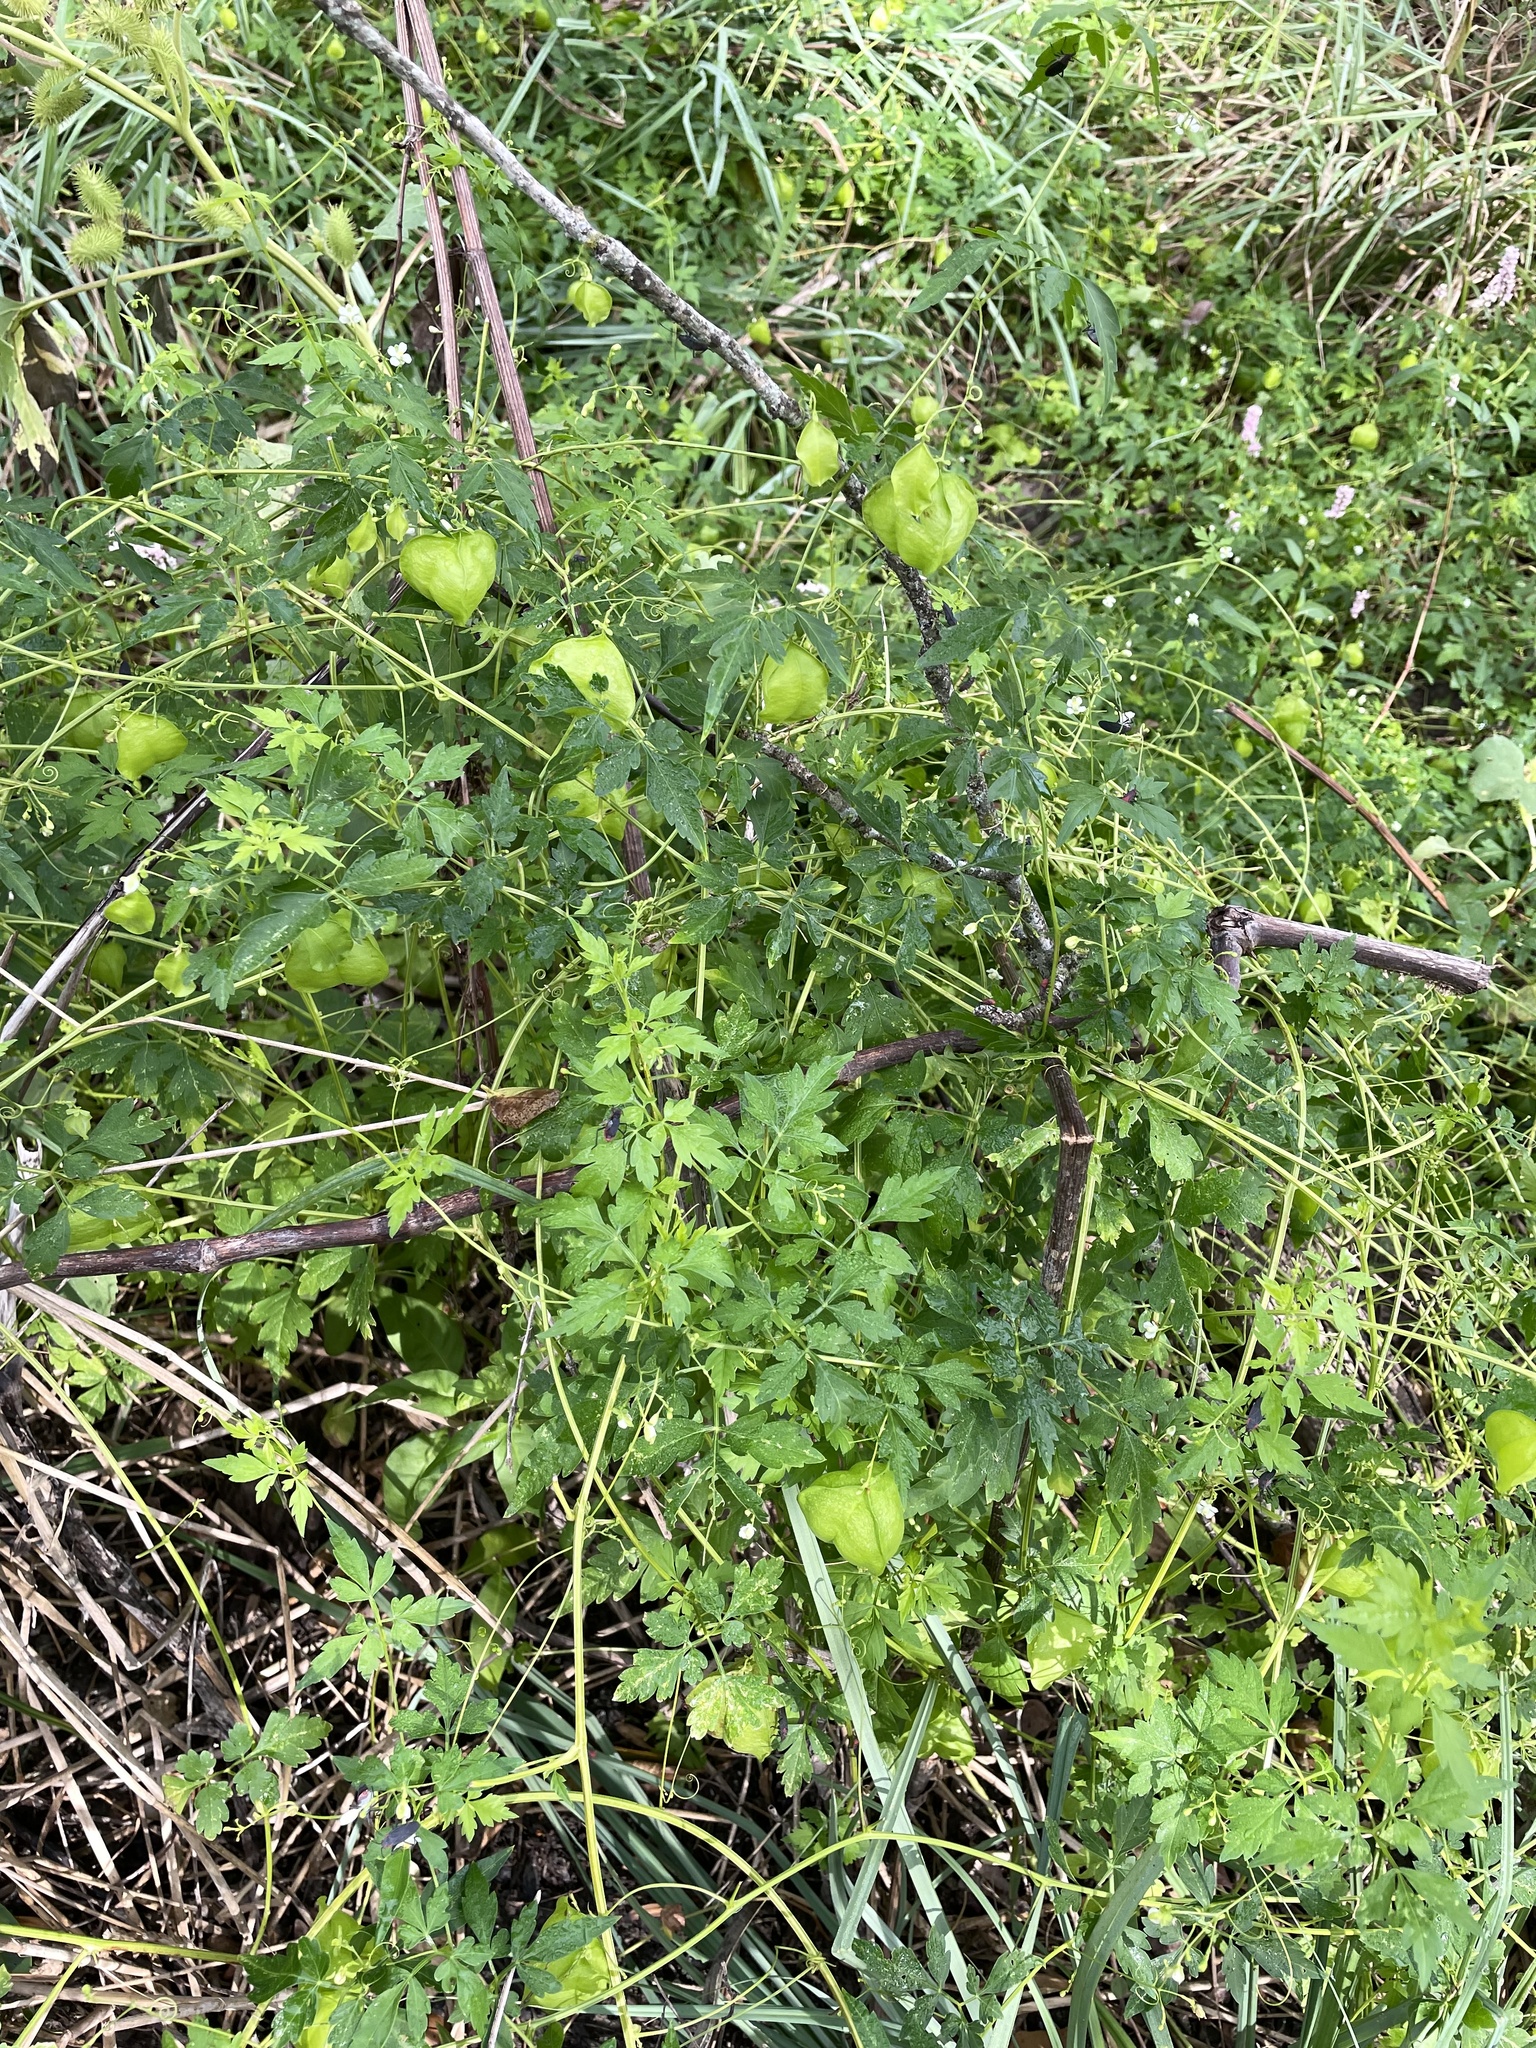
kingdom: Plantae
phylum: Tracheophyta
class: Magnoliopsida
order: Sapindales
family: Sapindaceae
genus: Cardiospermum
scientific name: Cardiospermum halicacabum
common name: Balloon vine
